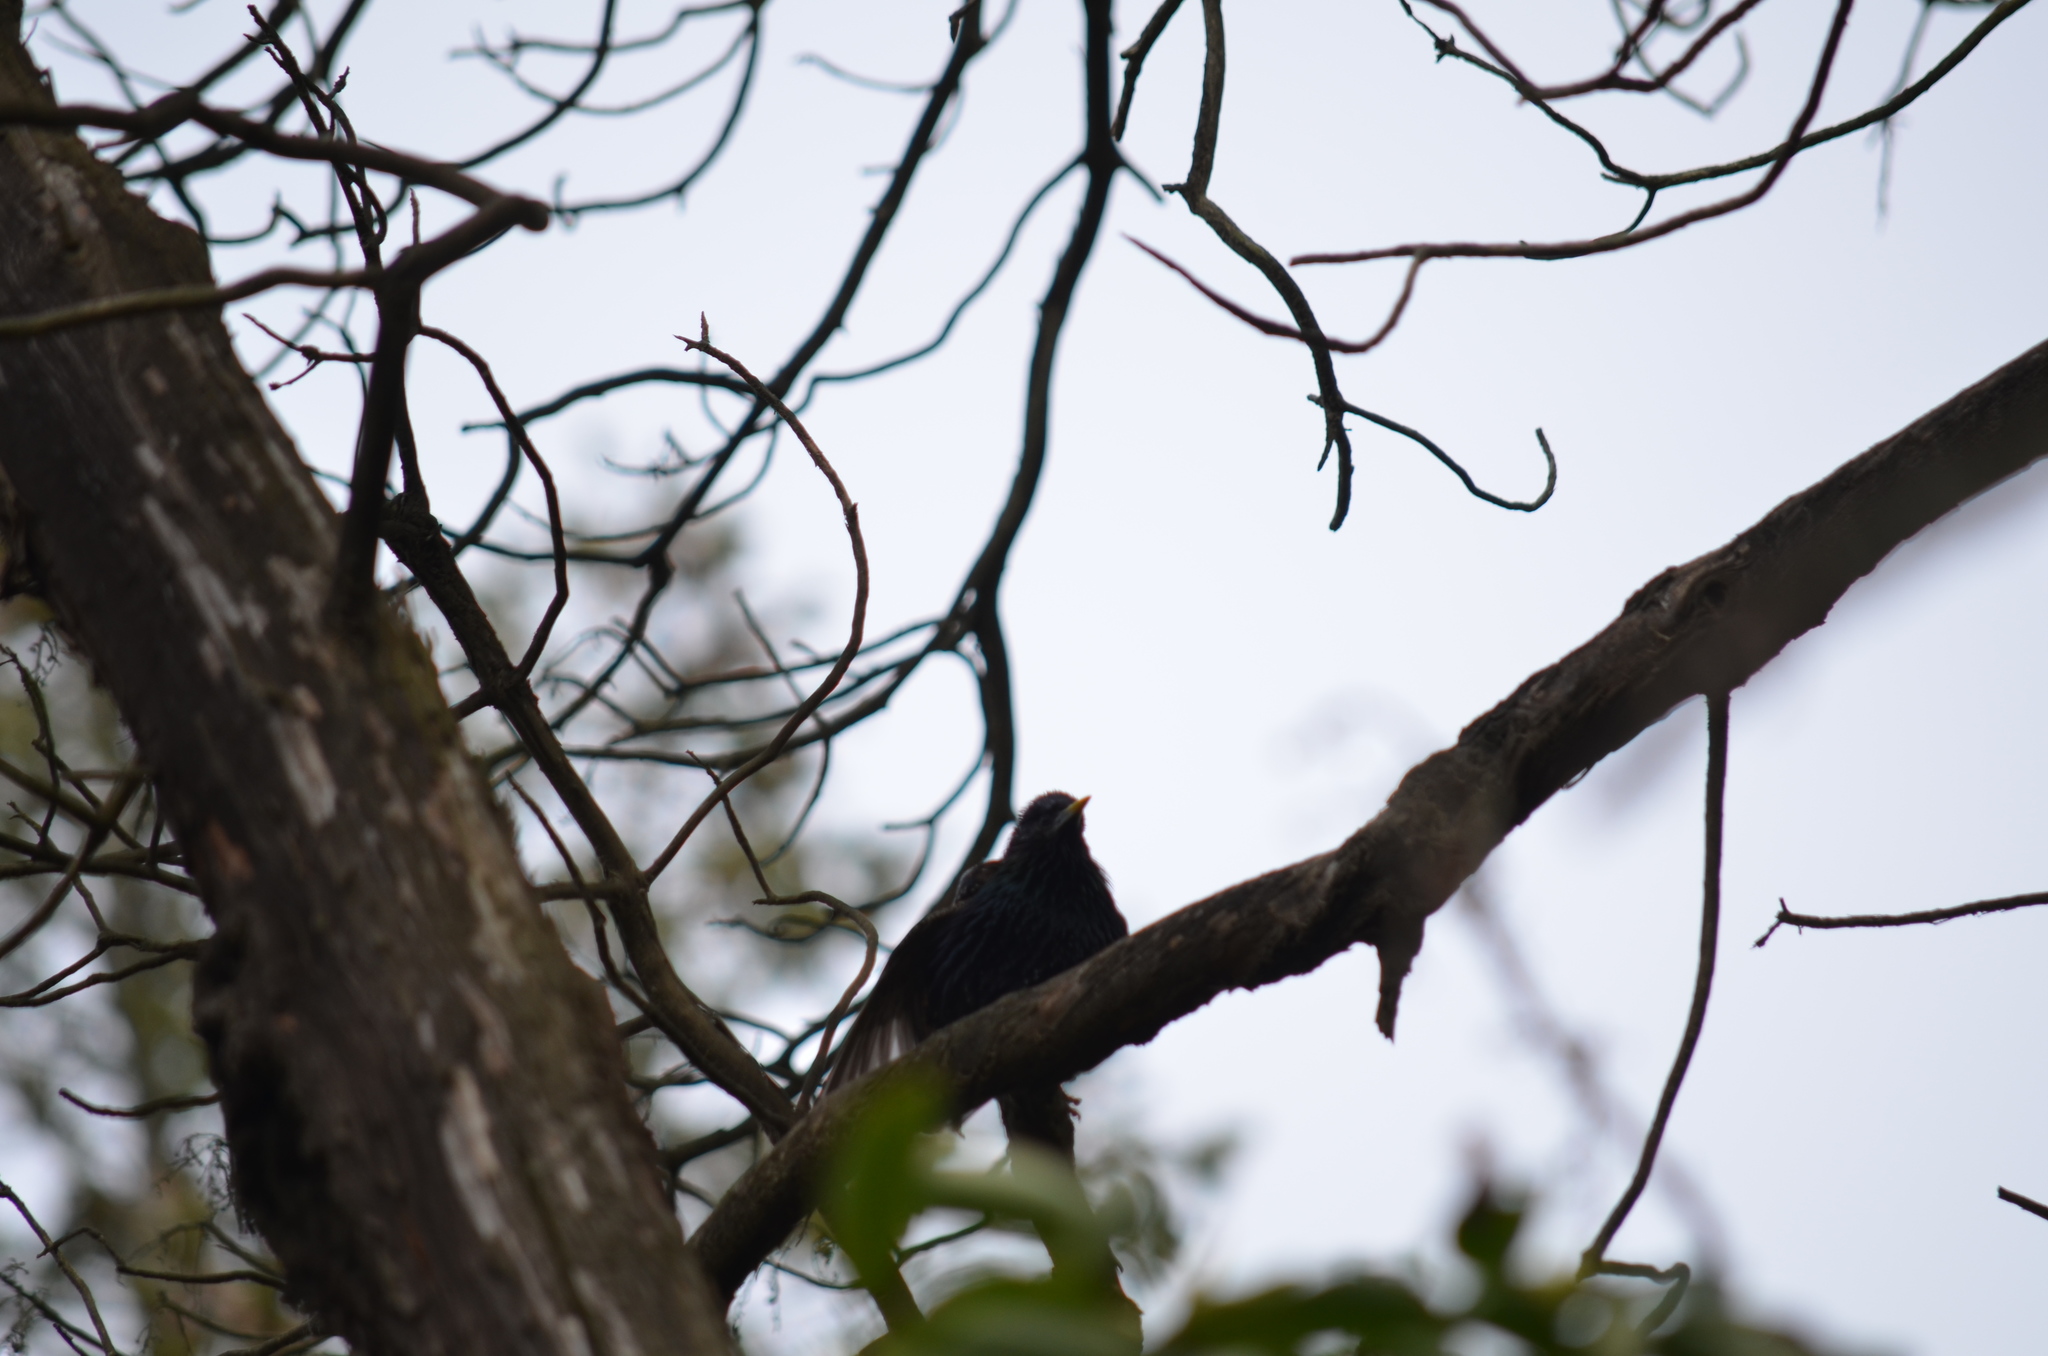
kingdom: Animalia
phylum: Chordata
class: Aves
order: Passeriformes
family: Sturnidae
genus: Sturnus
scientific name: Sturnus vulgaris
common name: Common starling
